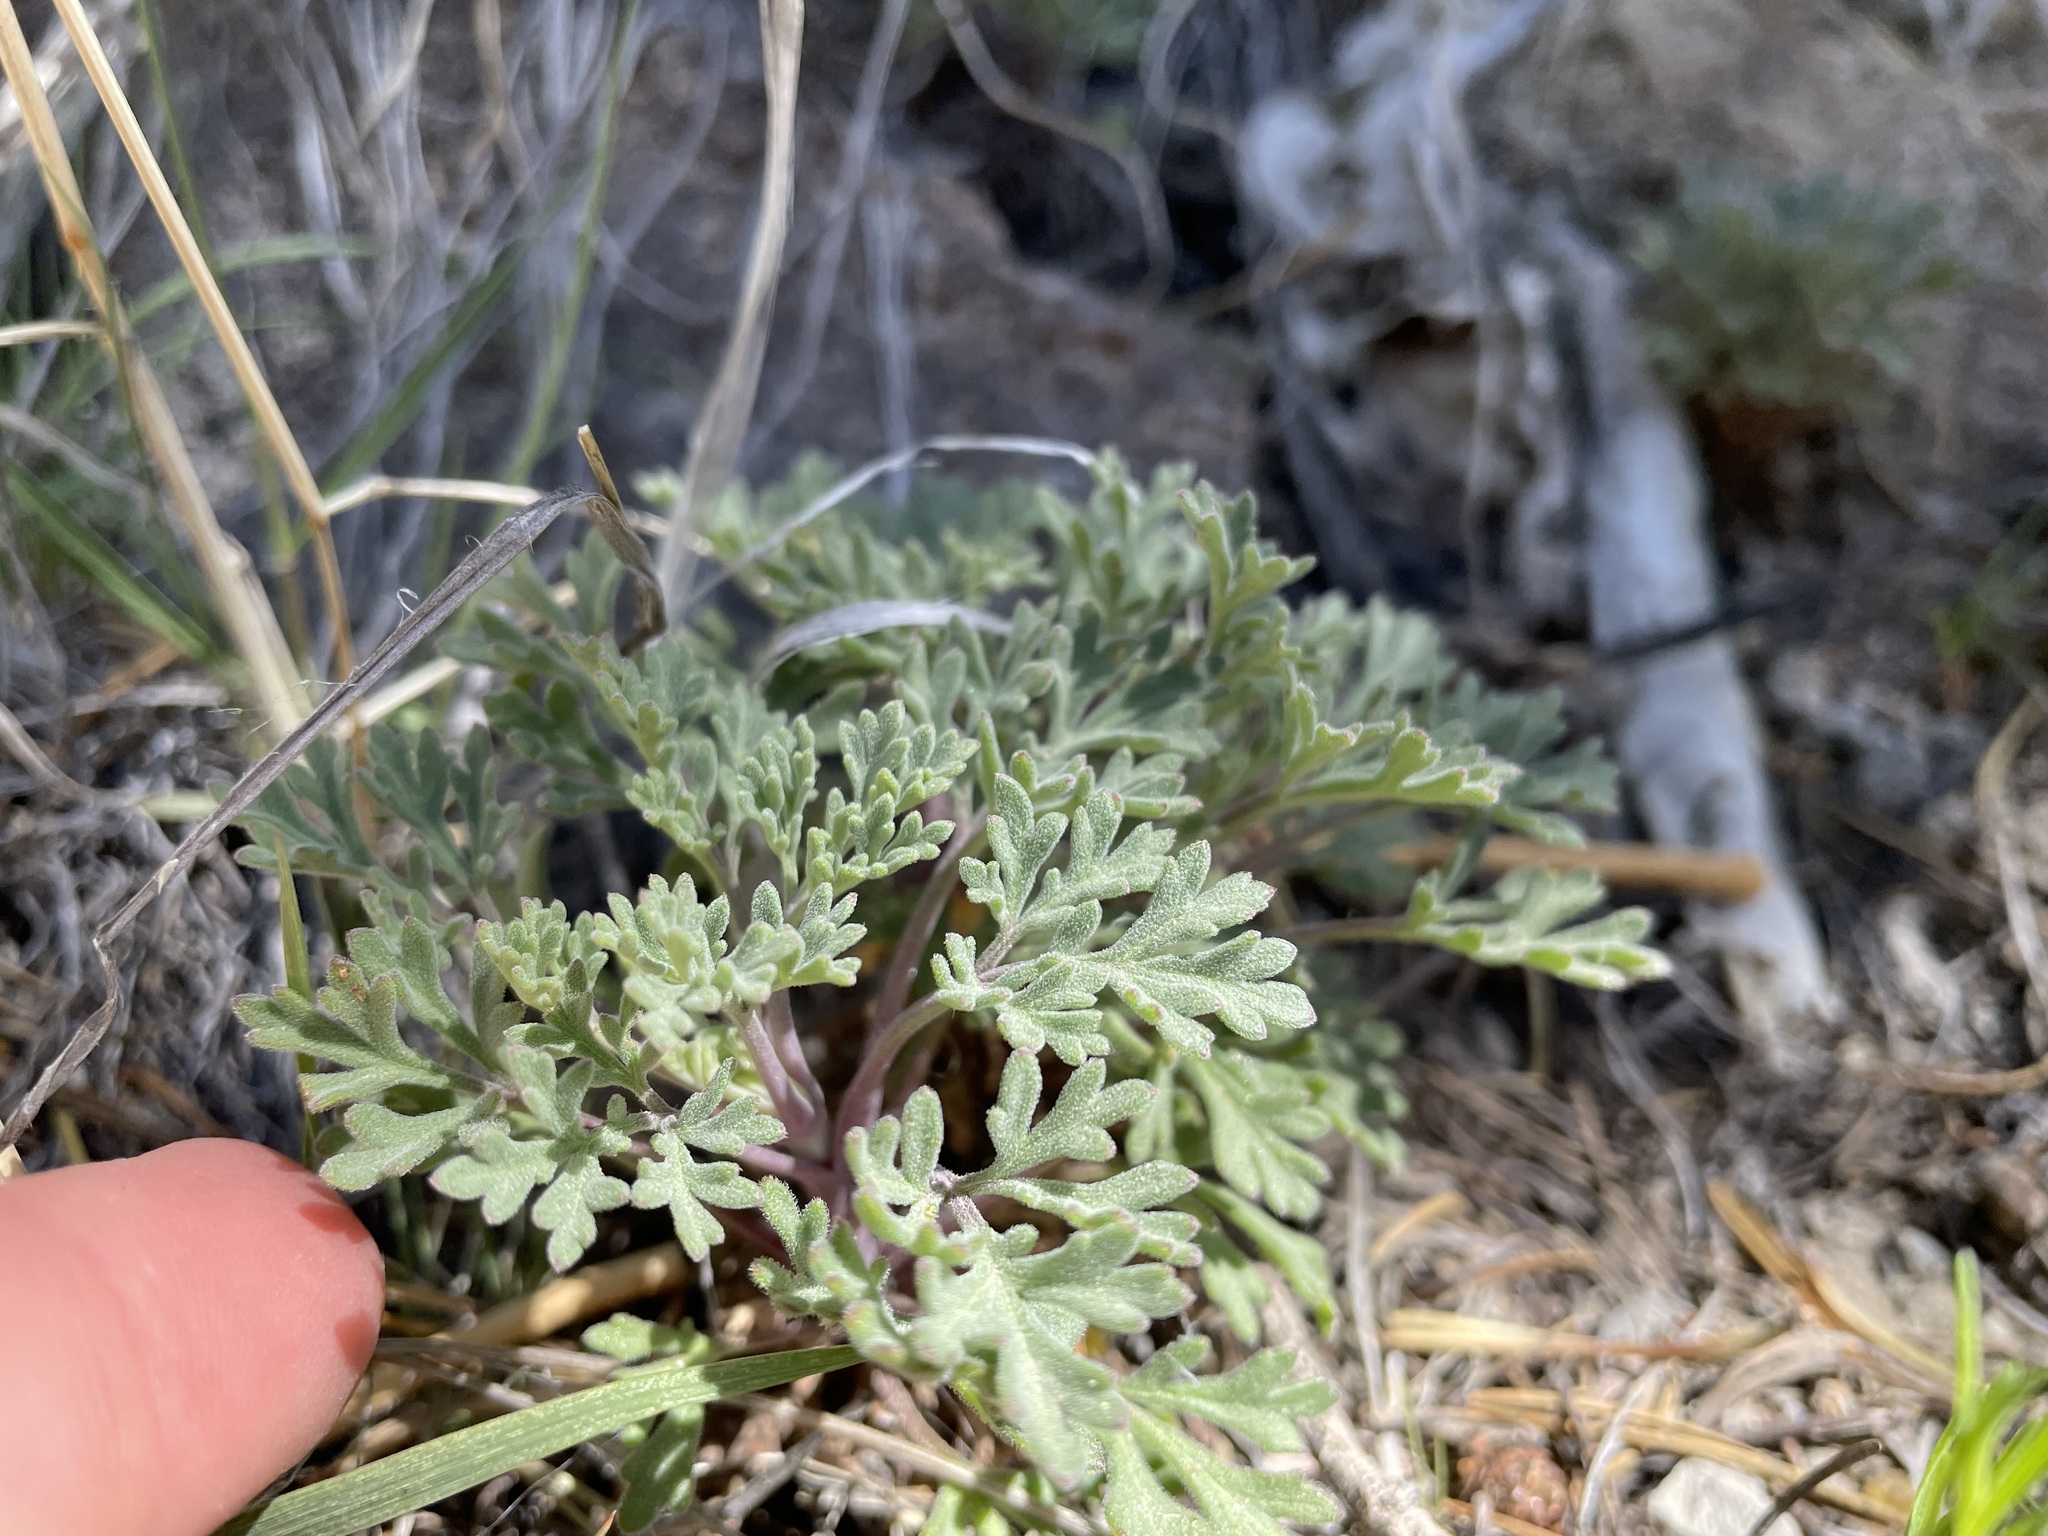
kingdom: Plantae
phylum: Tracheophyta
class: Magnoliopsida
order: Asterales
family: Asteraceae
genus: Hymenothrix
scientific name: Hymenothrix dissecta
